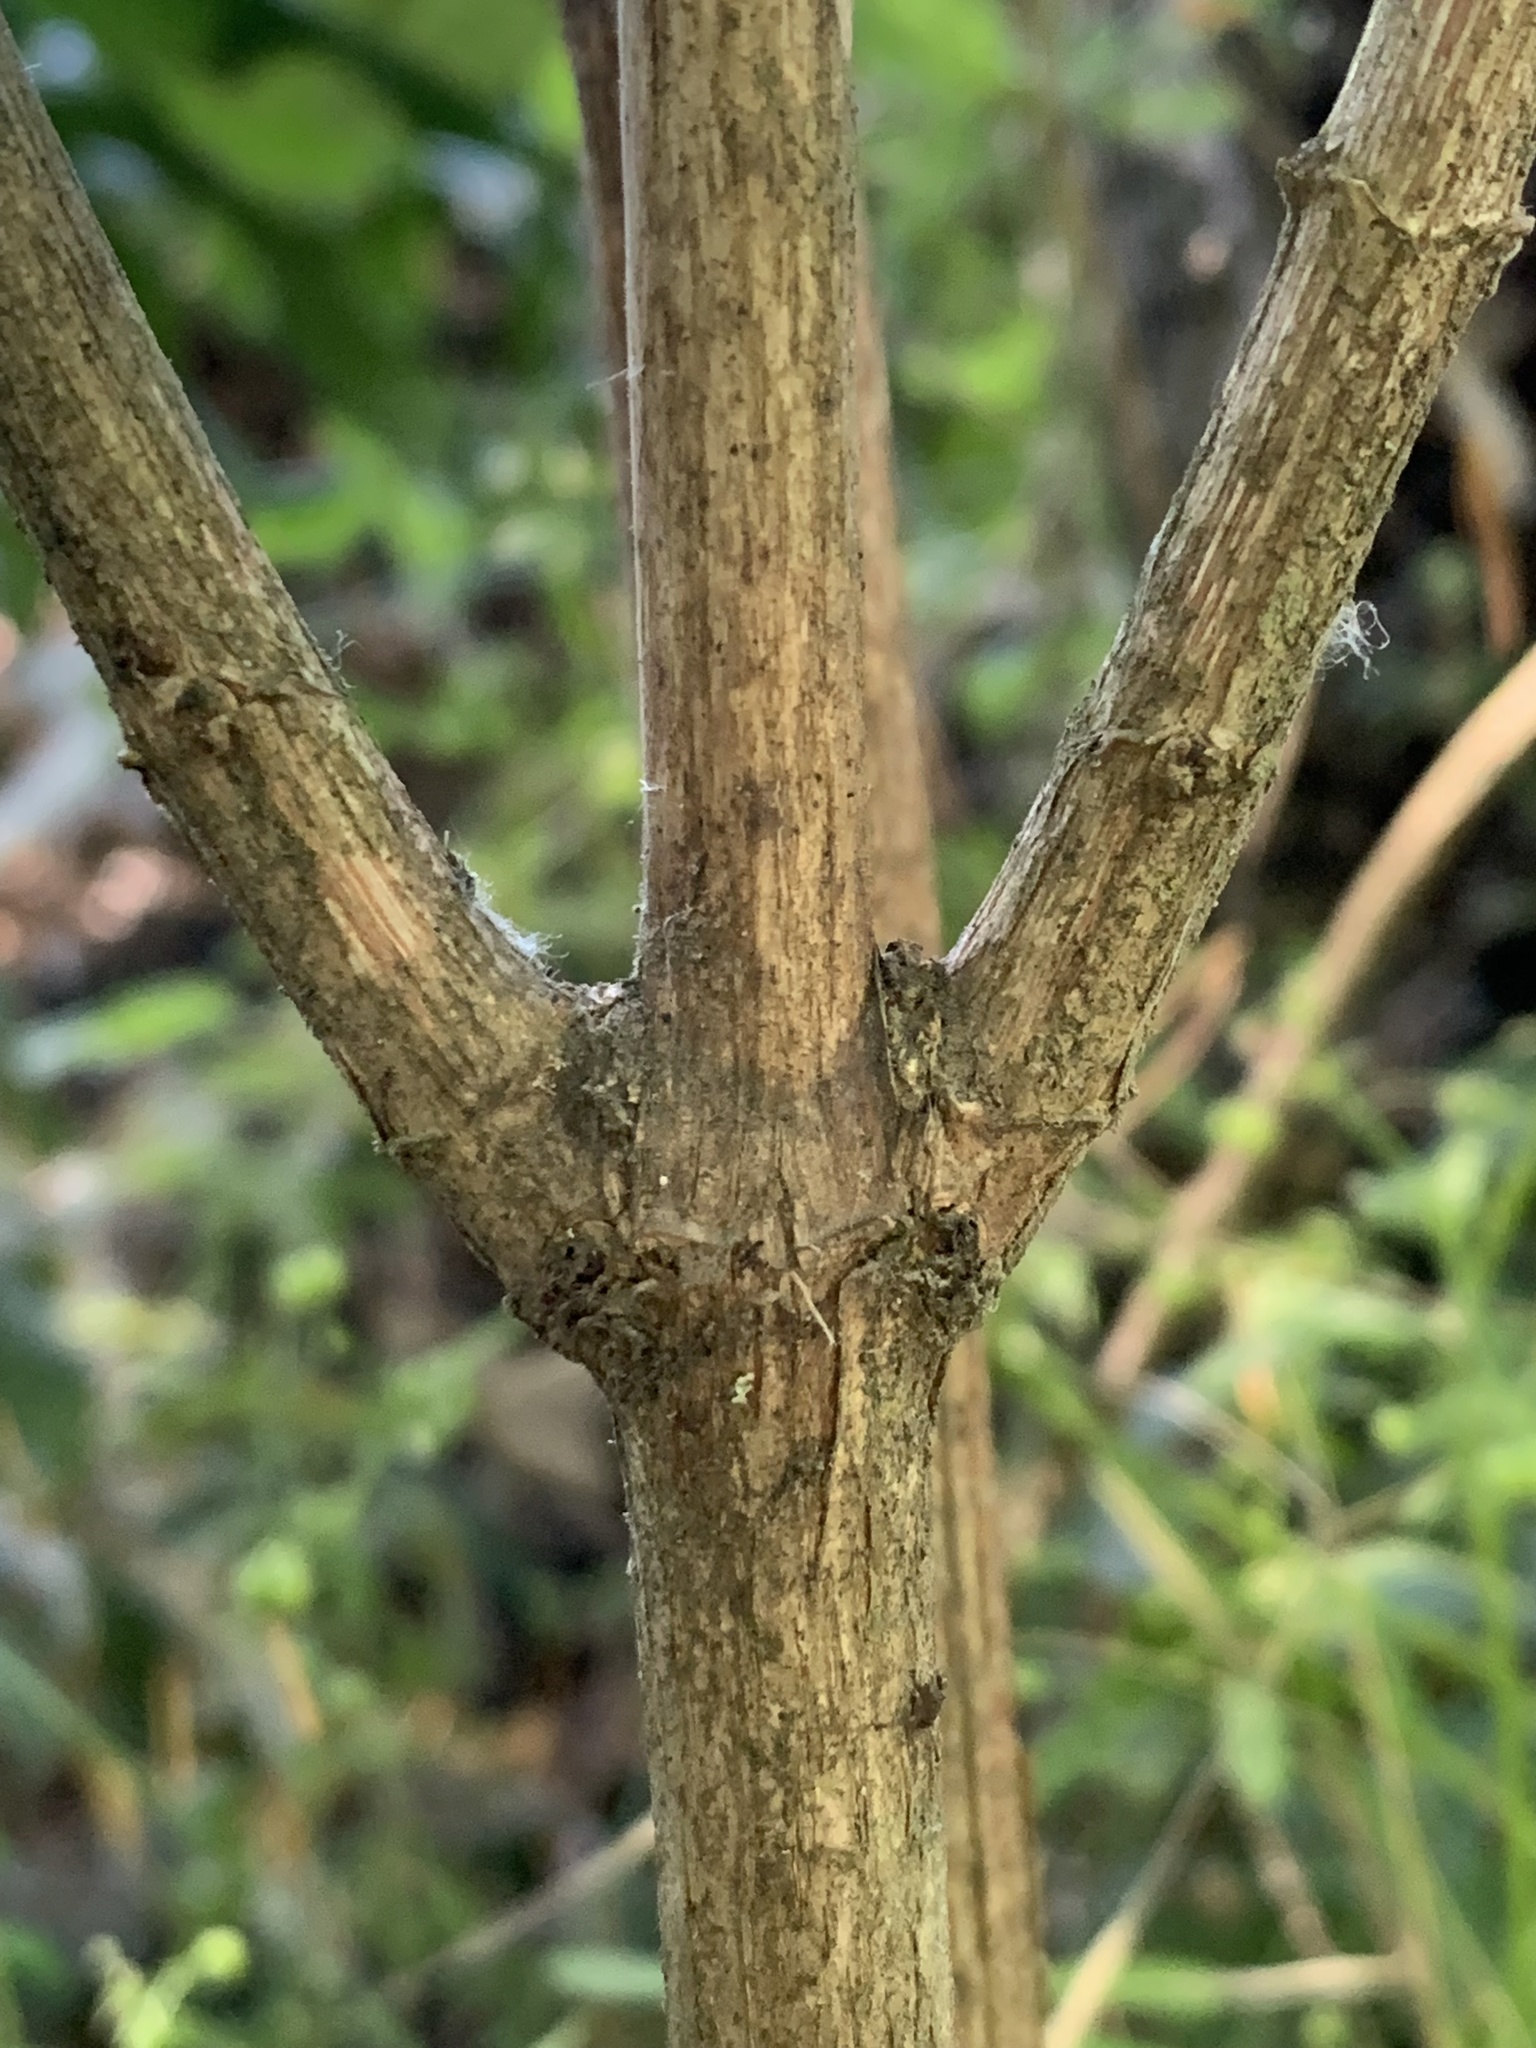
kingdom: Plantae
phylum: Tracheophyta
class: Magnoliopsida
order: Cornales
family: Hydrangeaceae
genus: Philadelphus
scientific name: Philadelphus lewisii
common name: Lewis's mock orange
